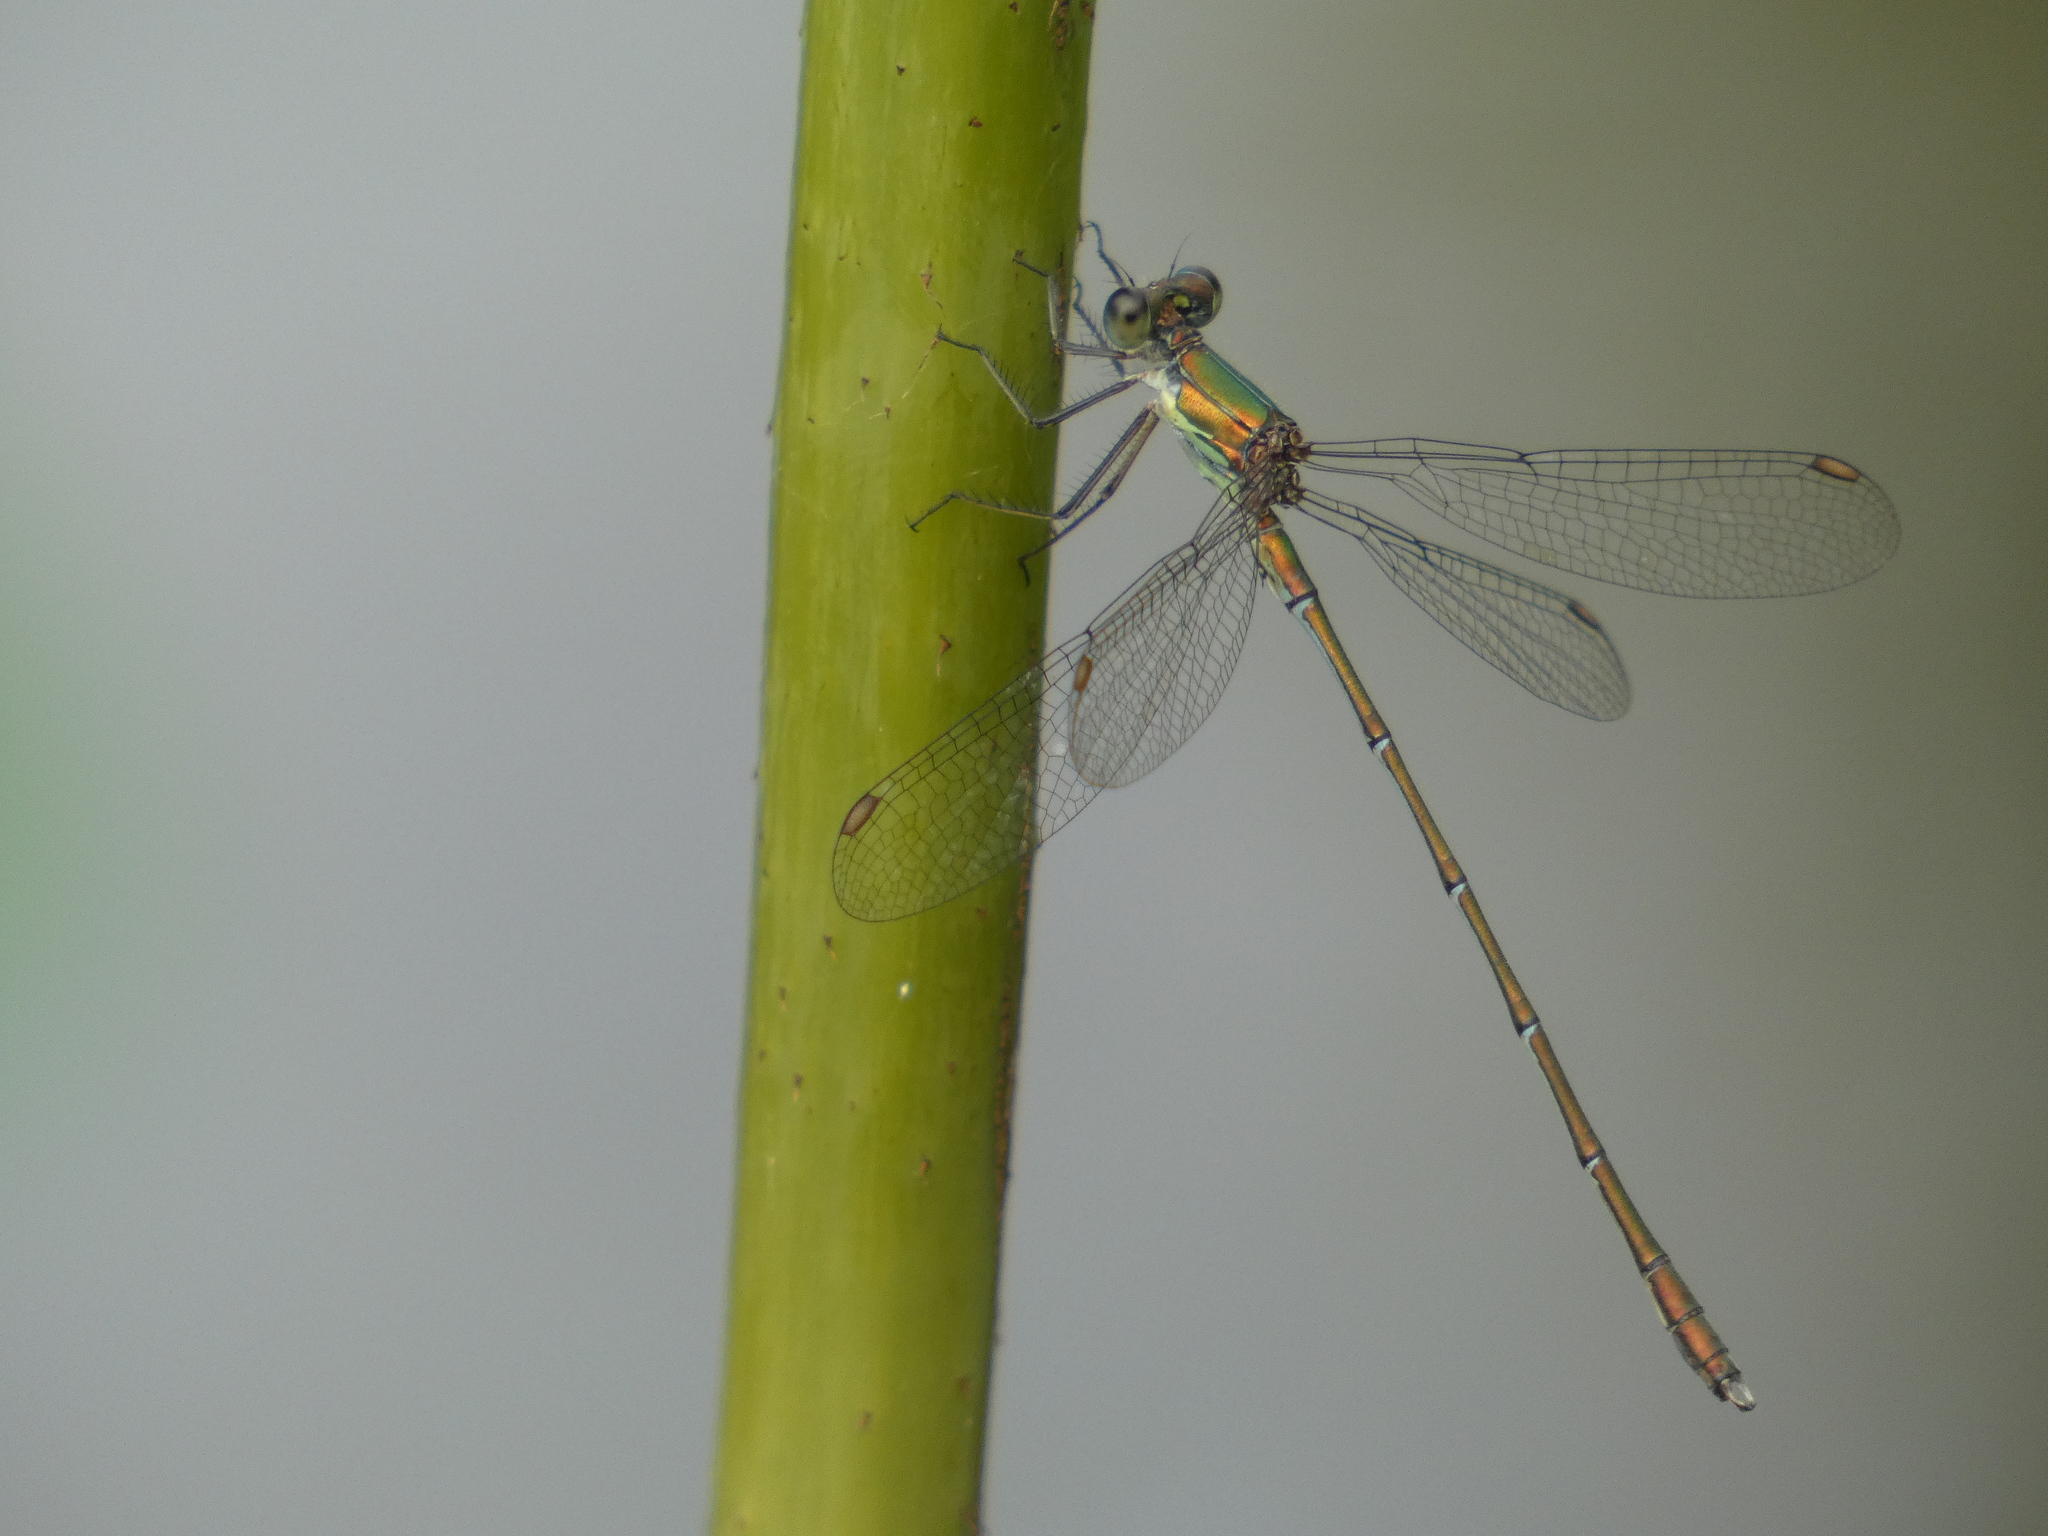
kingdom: Animalia
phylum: Arthropoda
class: Insecta
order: Odonata
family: Lestidae
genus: Chalcolestes
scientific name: Chalcolestes viridis
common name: Green emerald damselfly
